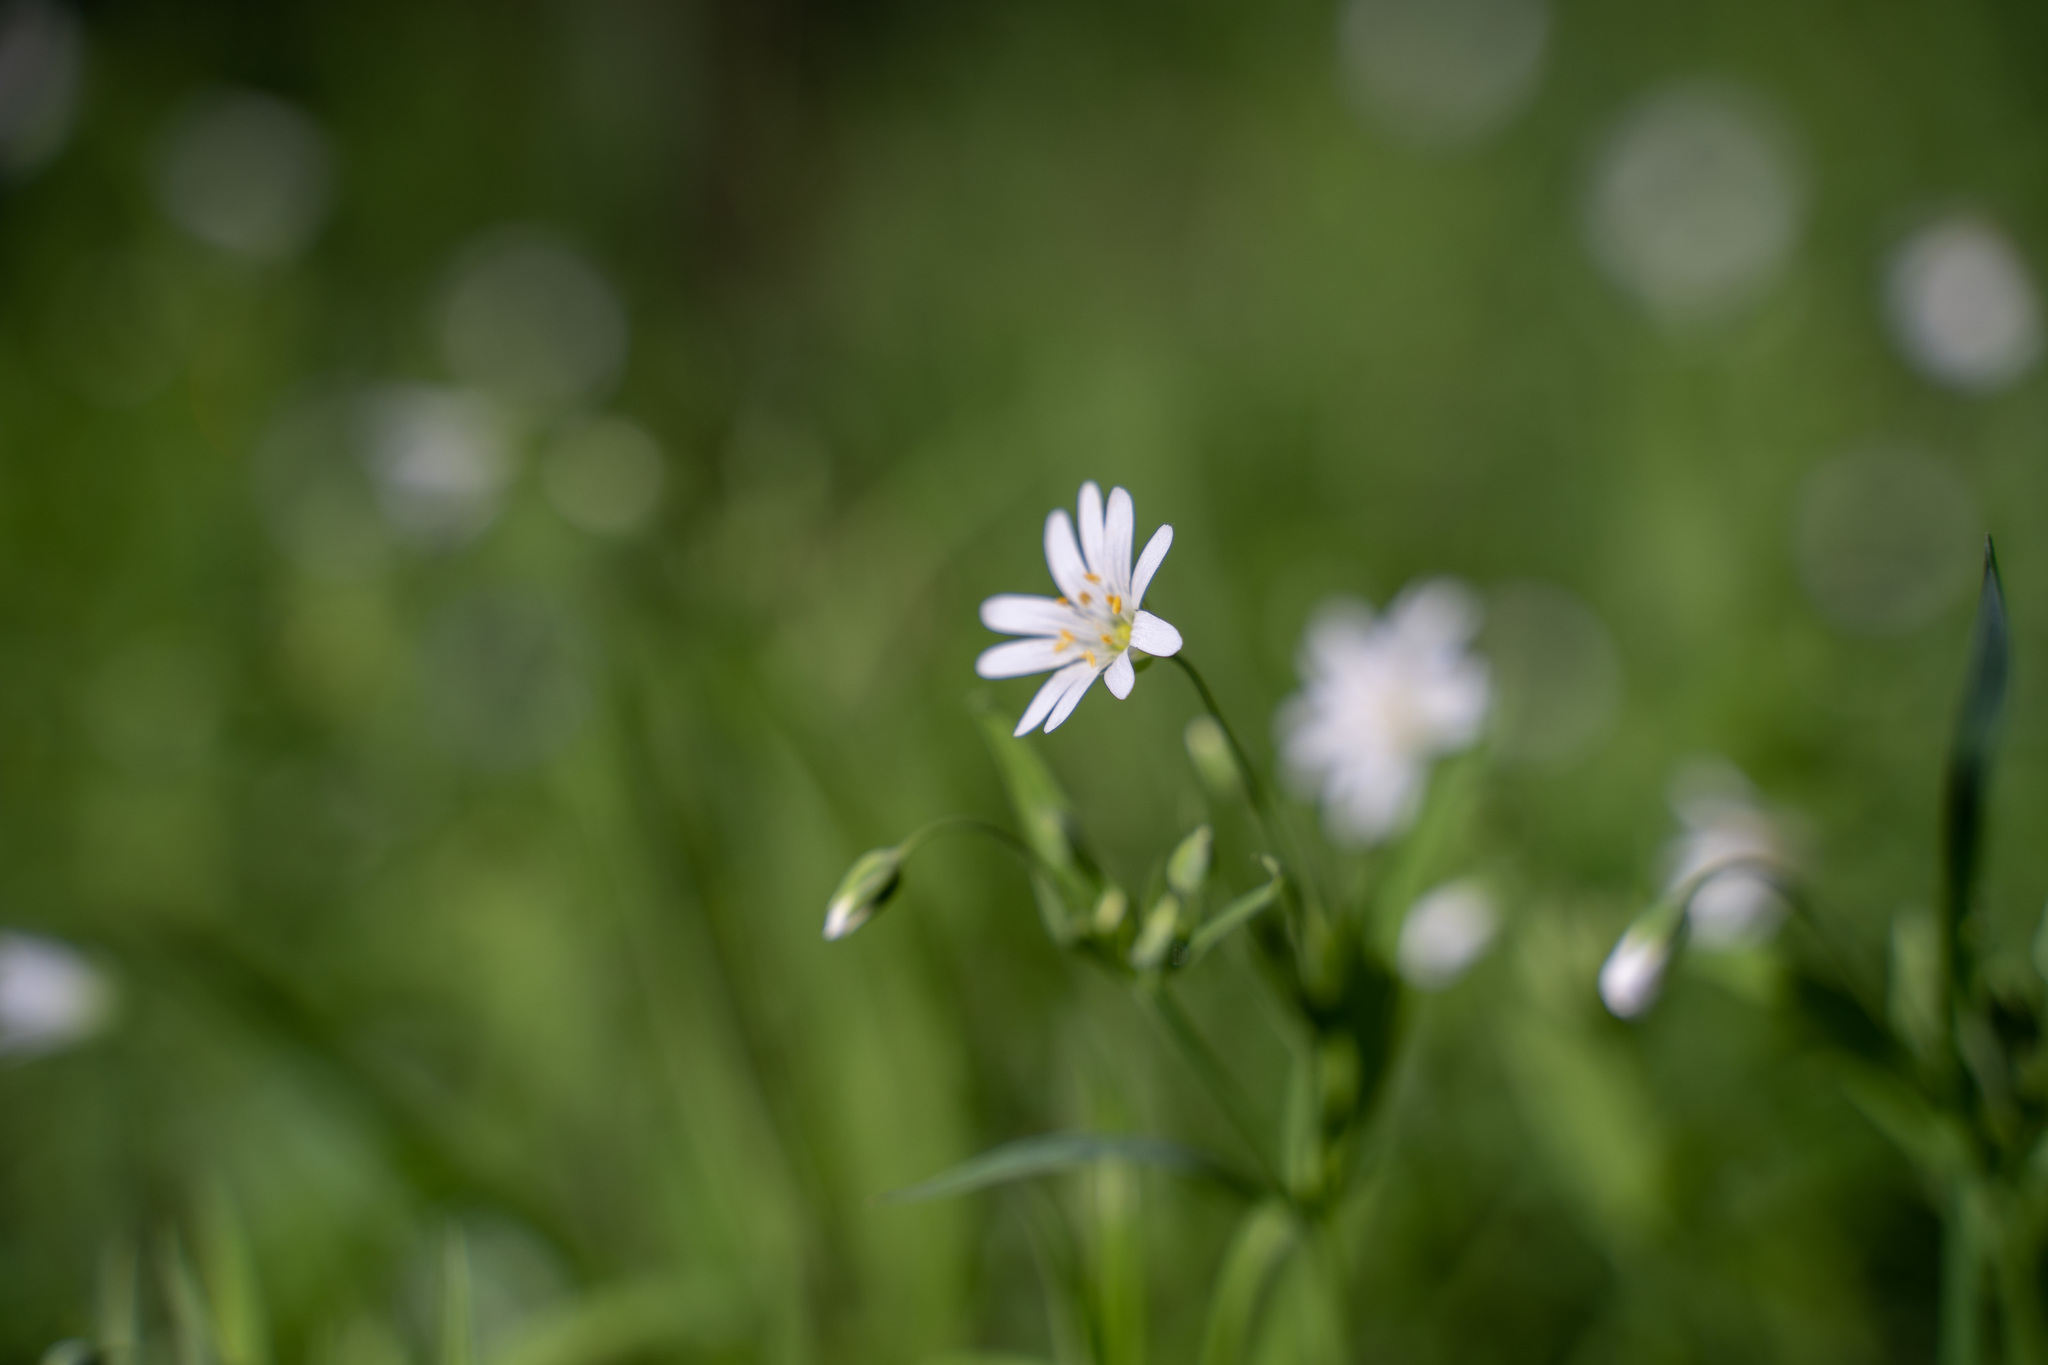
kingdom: Plantae
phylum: Tracheophyta
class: Magnoliopsida
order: Caryophyllales
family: Caryophyllaceae
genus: Rabelera
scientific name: Rabelera holostea
